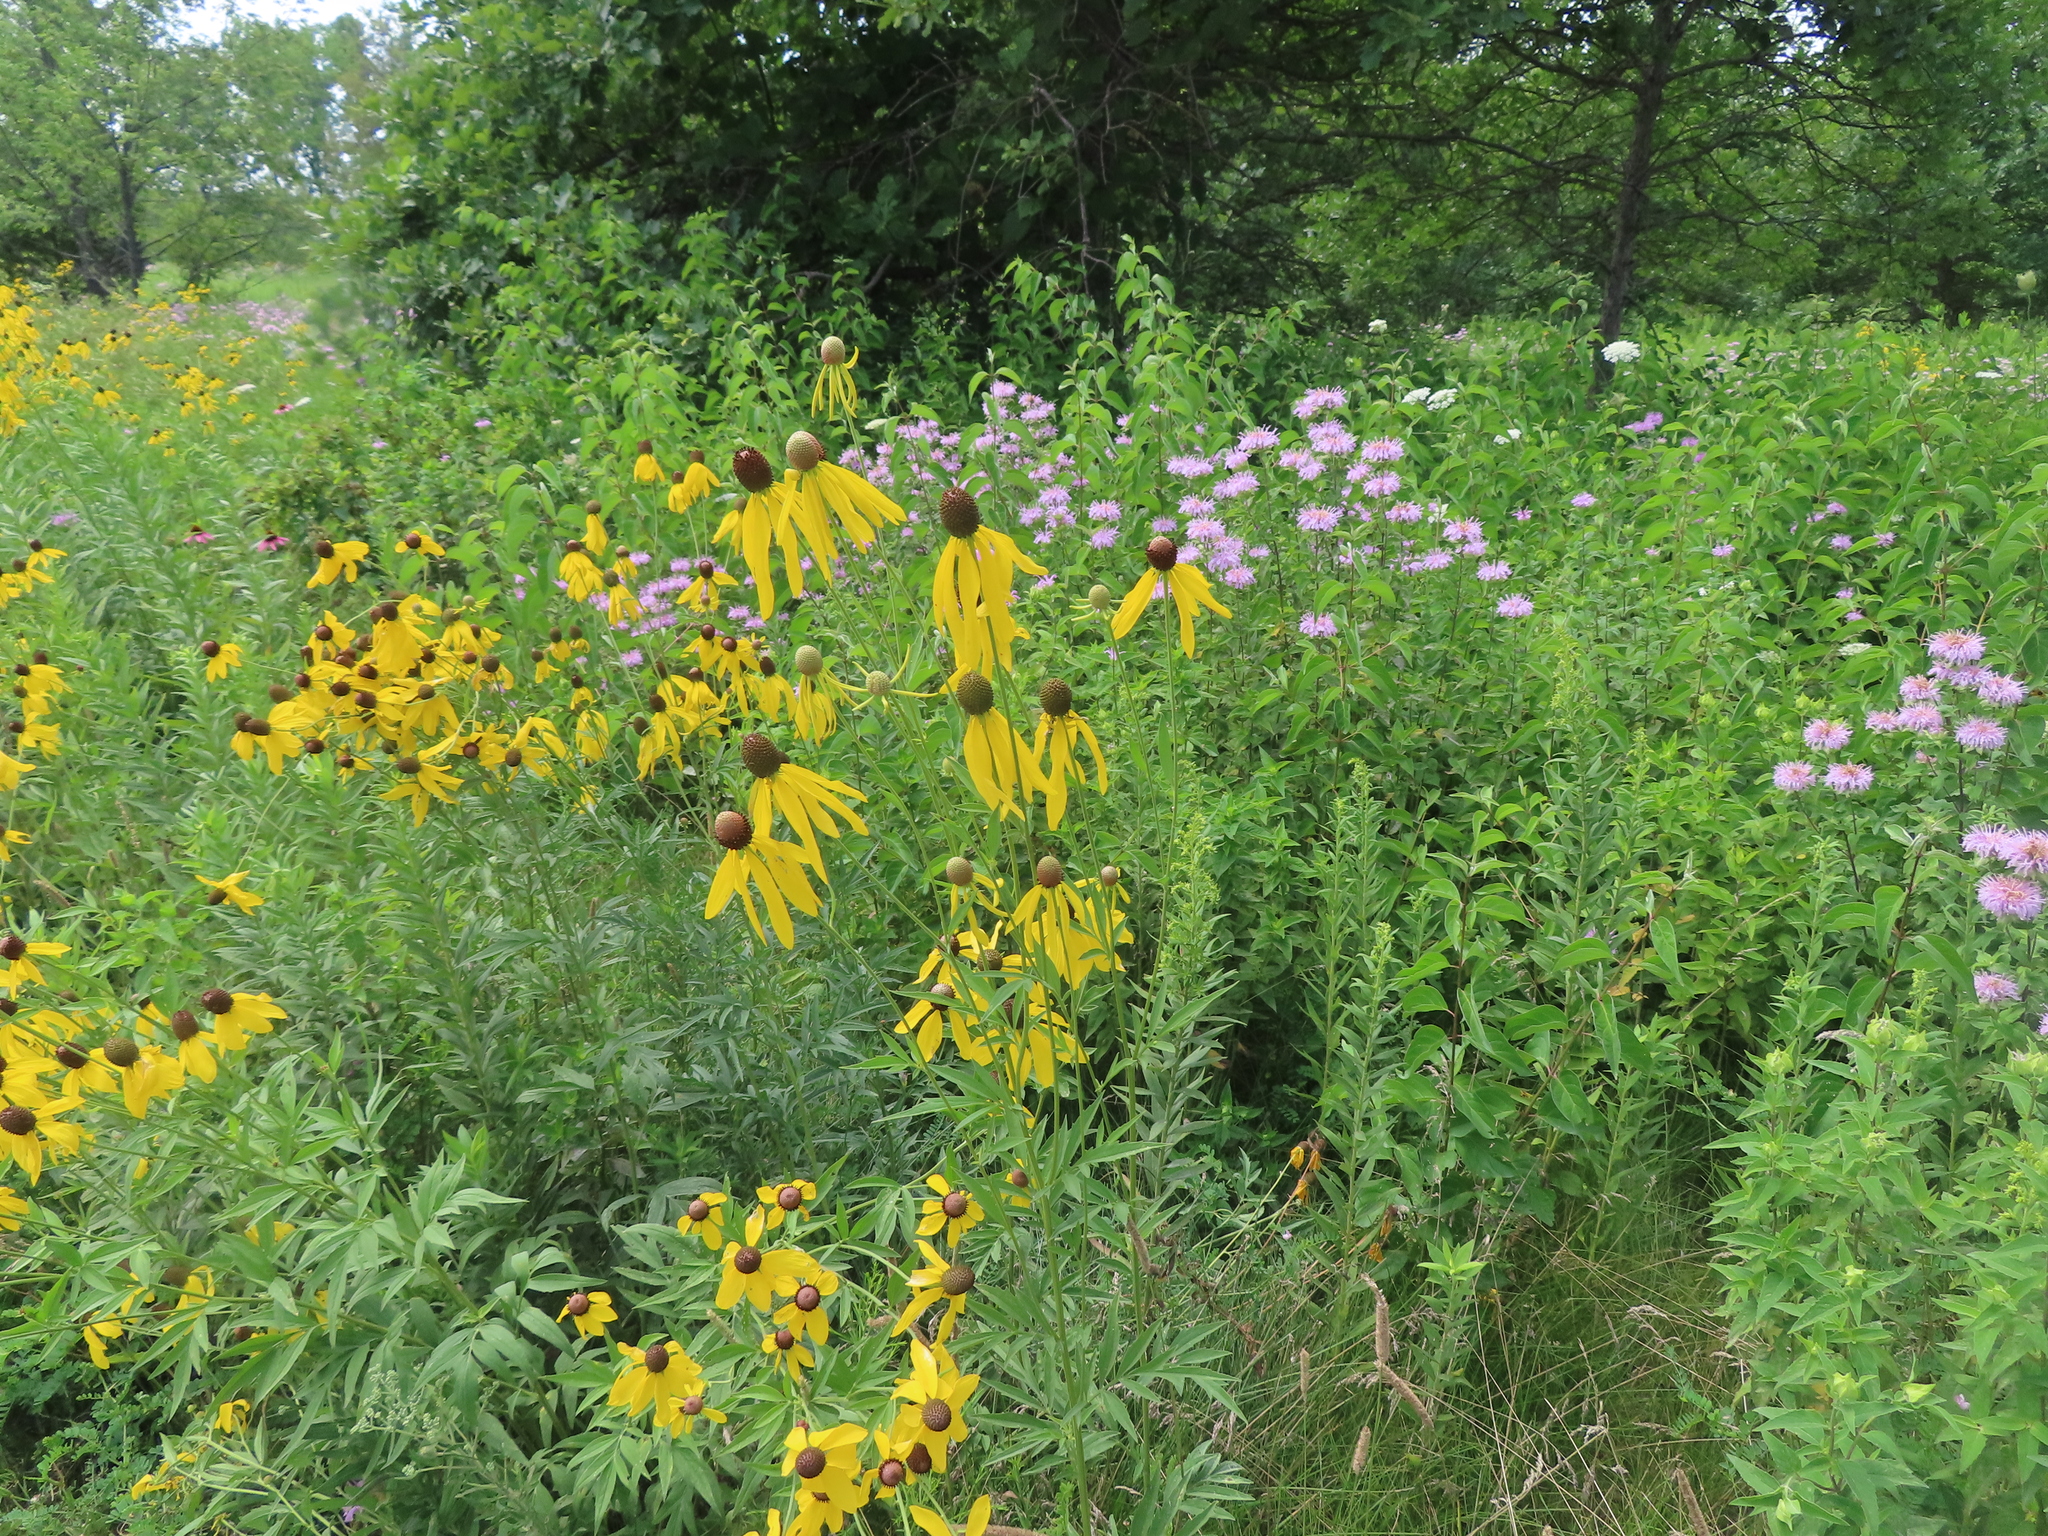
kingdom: Plantae
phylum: Tracheophyta
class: Magnoliopsida
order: Asterales
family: Asteraceae
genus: Ratibida
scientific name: Ratibida pinnata
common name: Drooping prairie-coneflower
